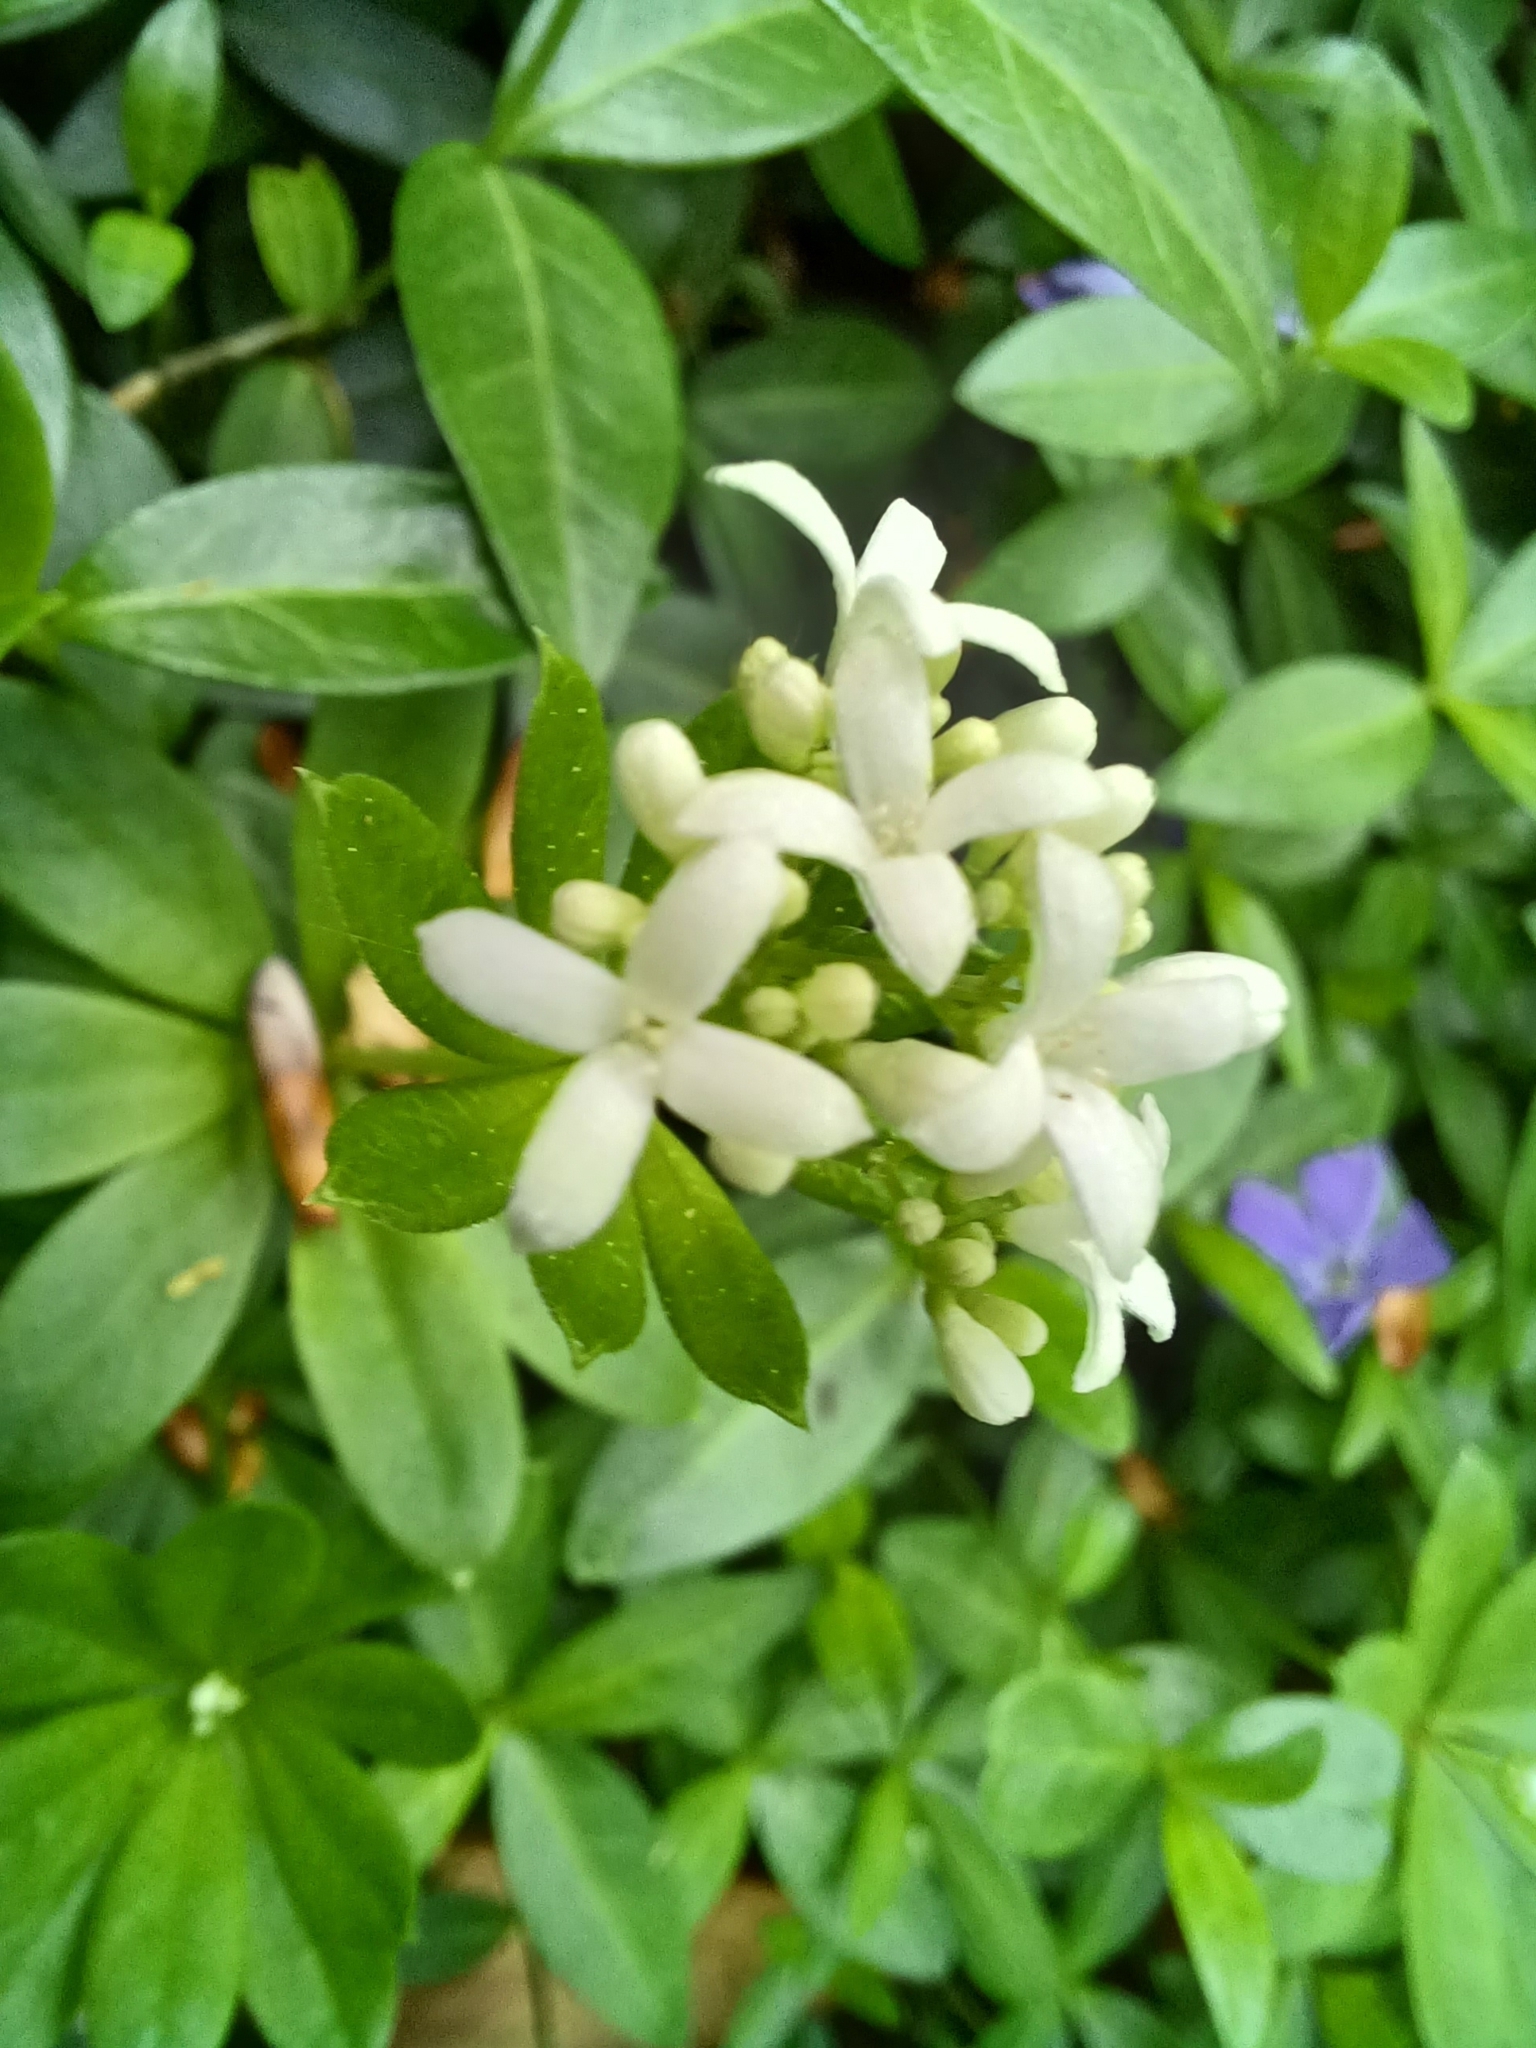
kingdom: Plantae
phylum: Tracheophyta
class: Magnoliopsida
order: Gentianales
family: Rubiaceae
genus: Galium
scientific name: Galium odoratum
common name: Sweet woodruff
